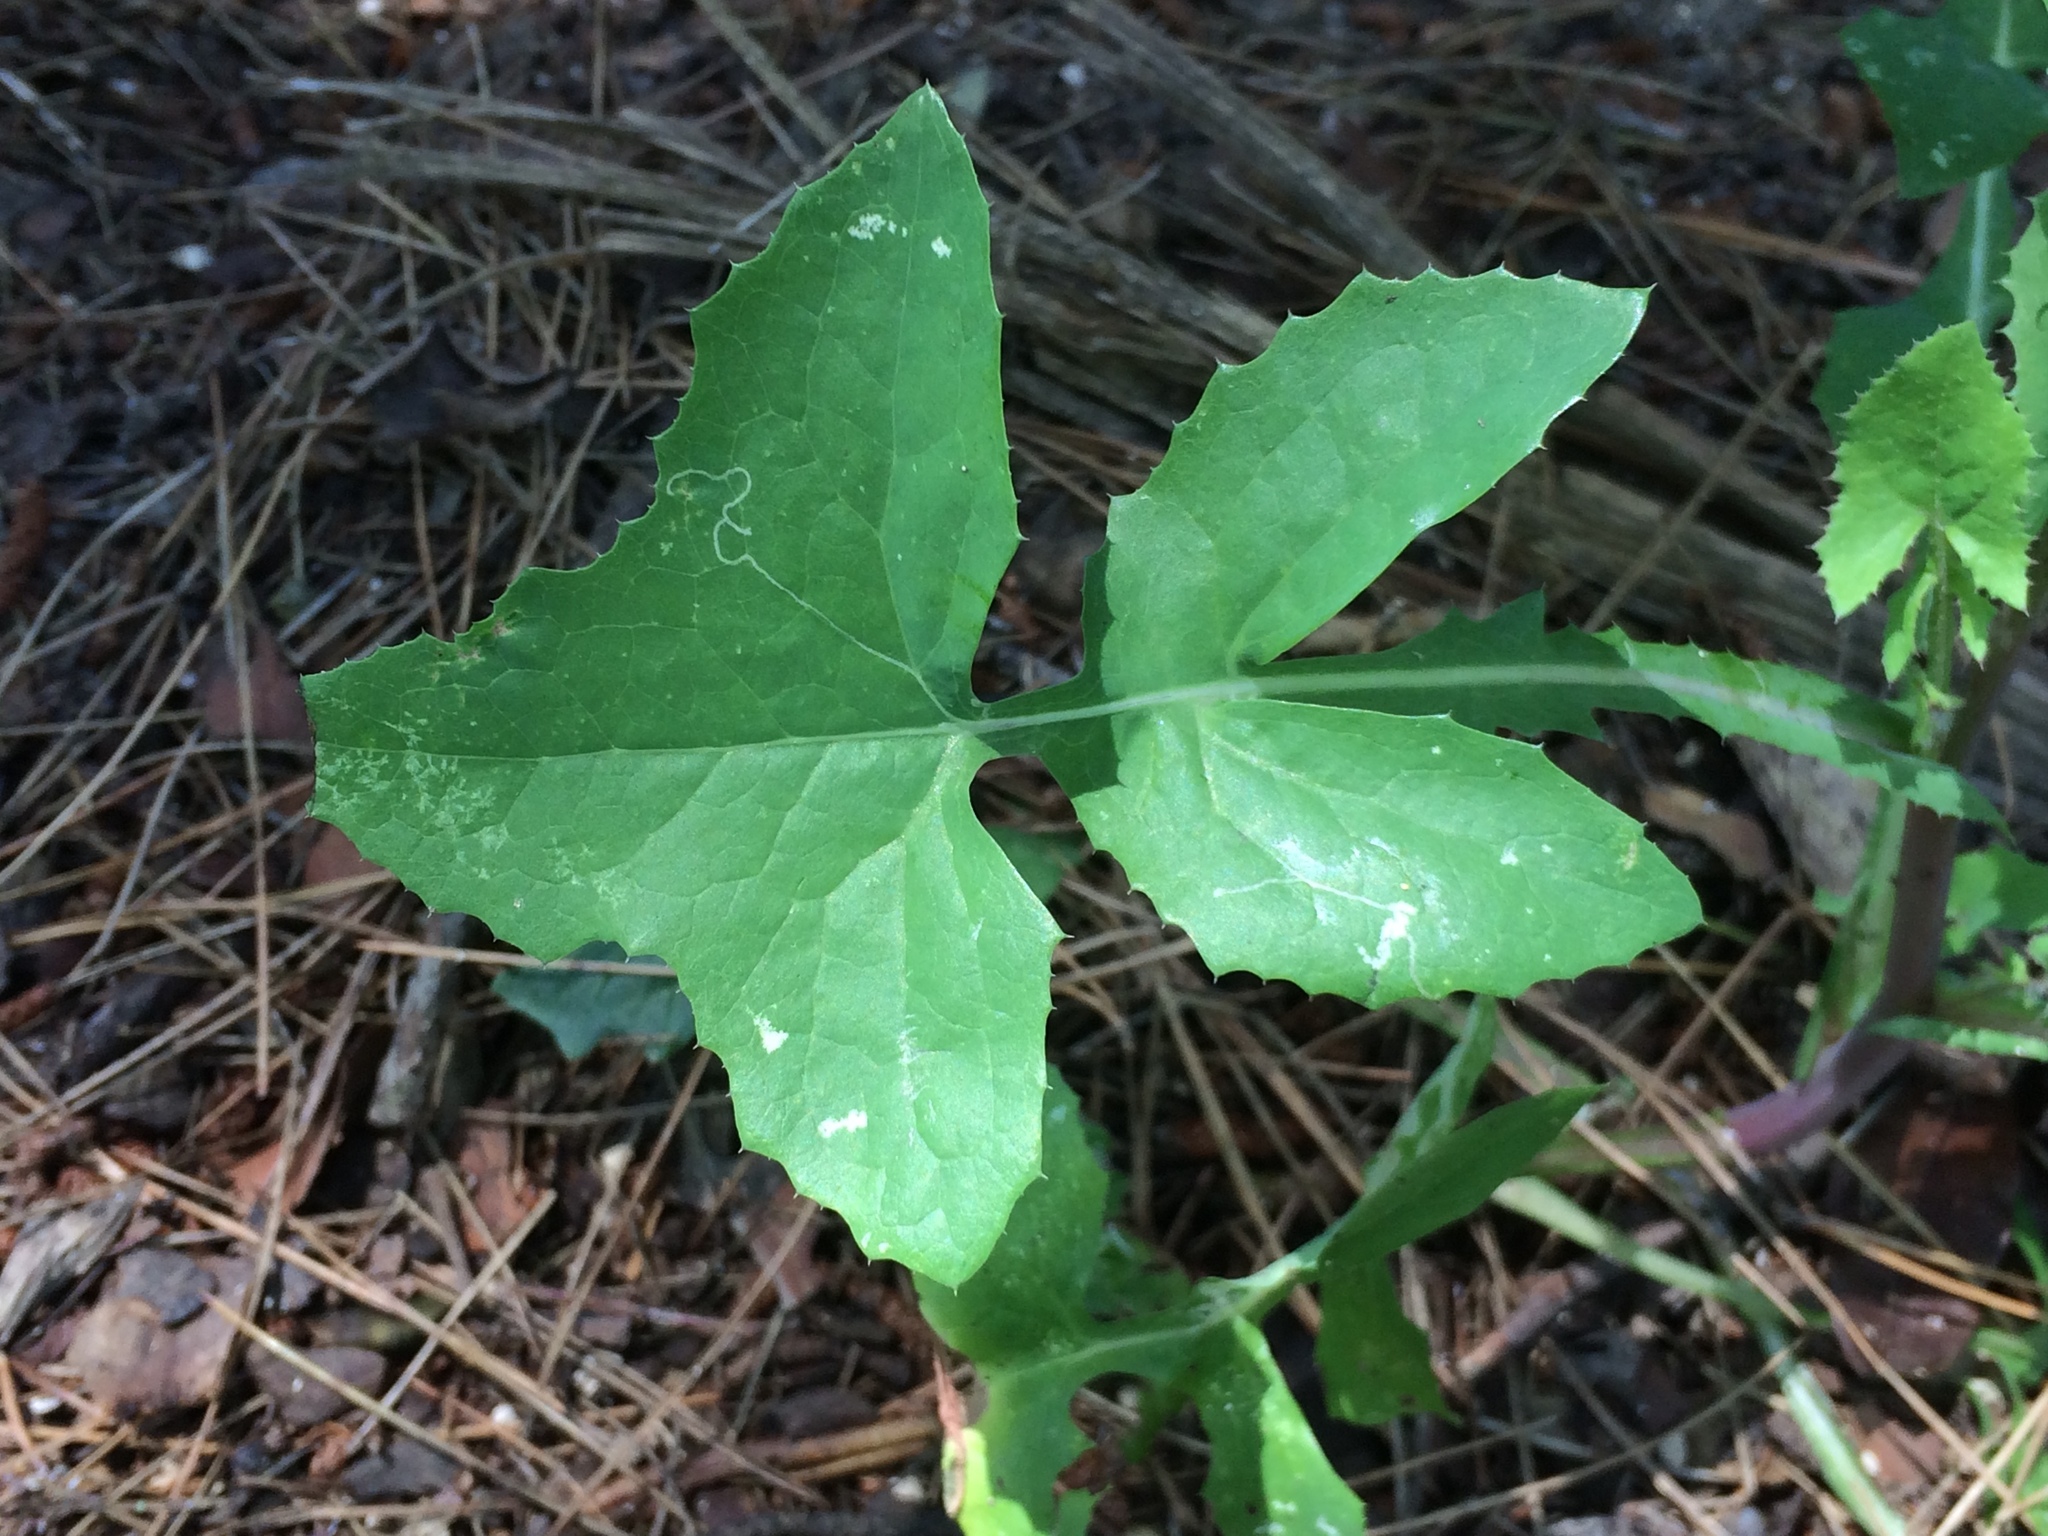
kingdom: Plantae
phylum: Tracheophyta
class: Magnoliopsida
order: Asterales
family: Asteraceae
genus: Sonchus
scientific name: Sonchus oleraceus
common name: Common sowthistle
